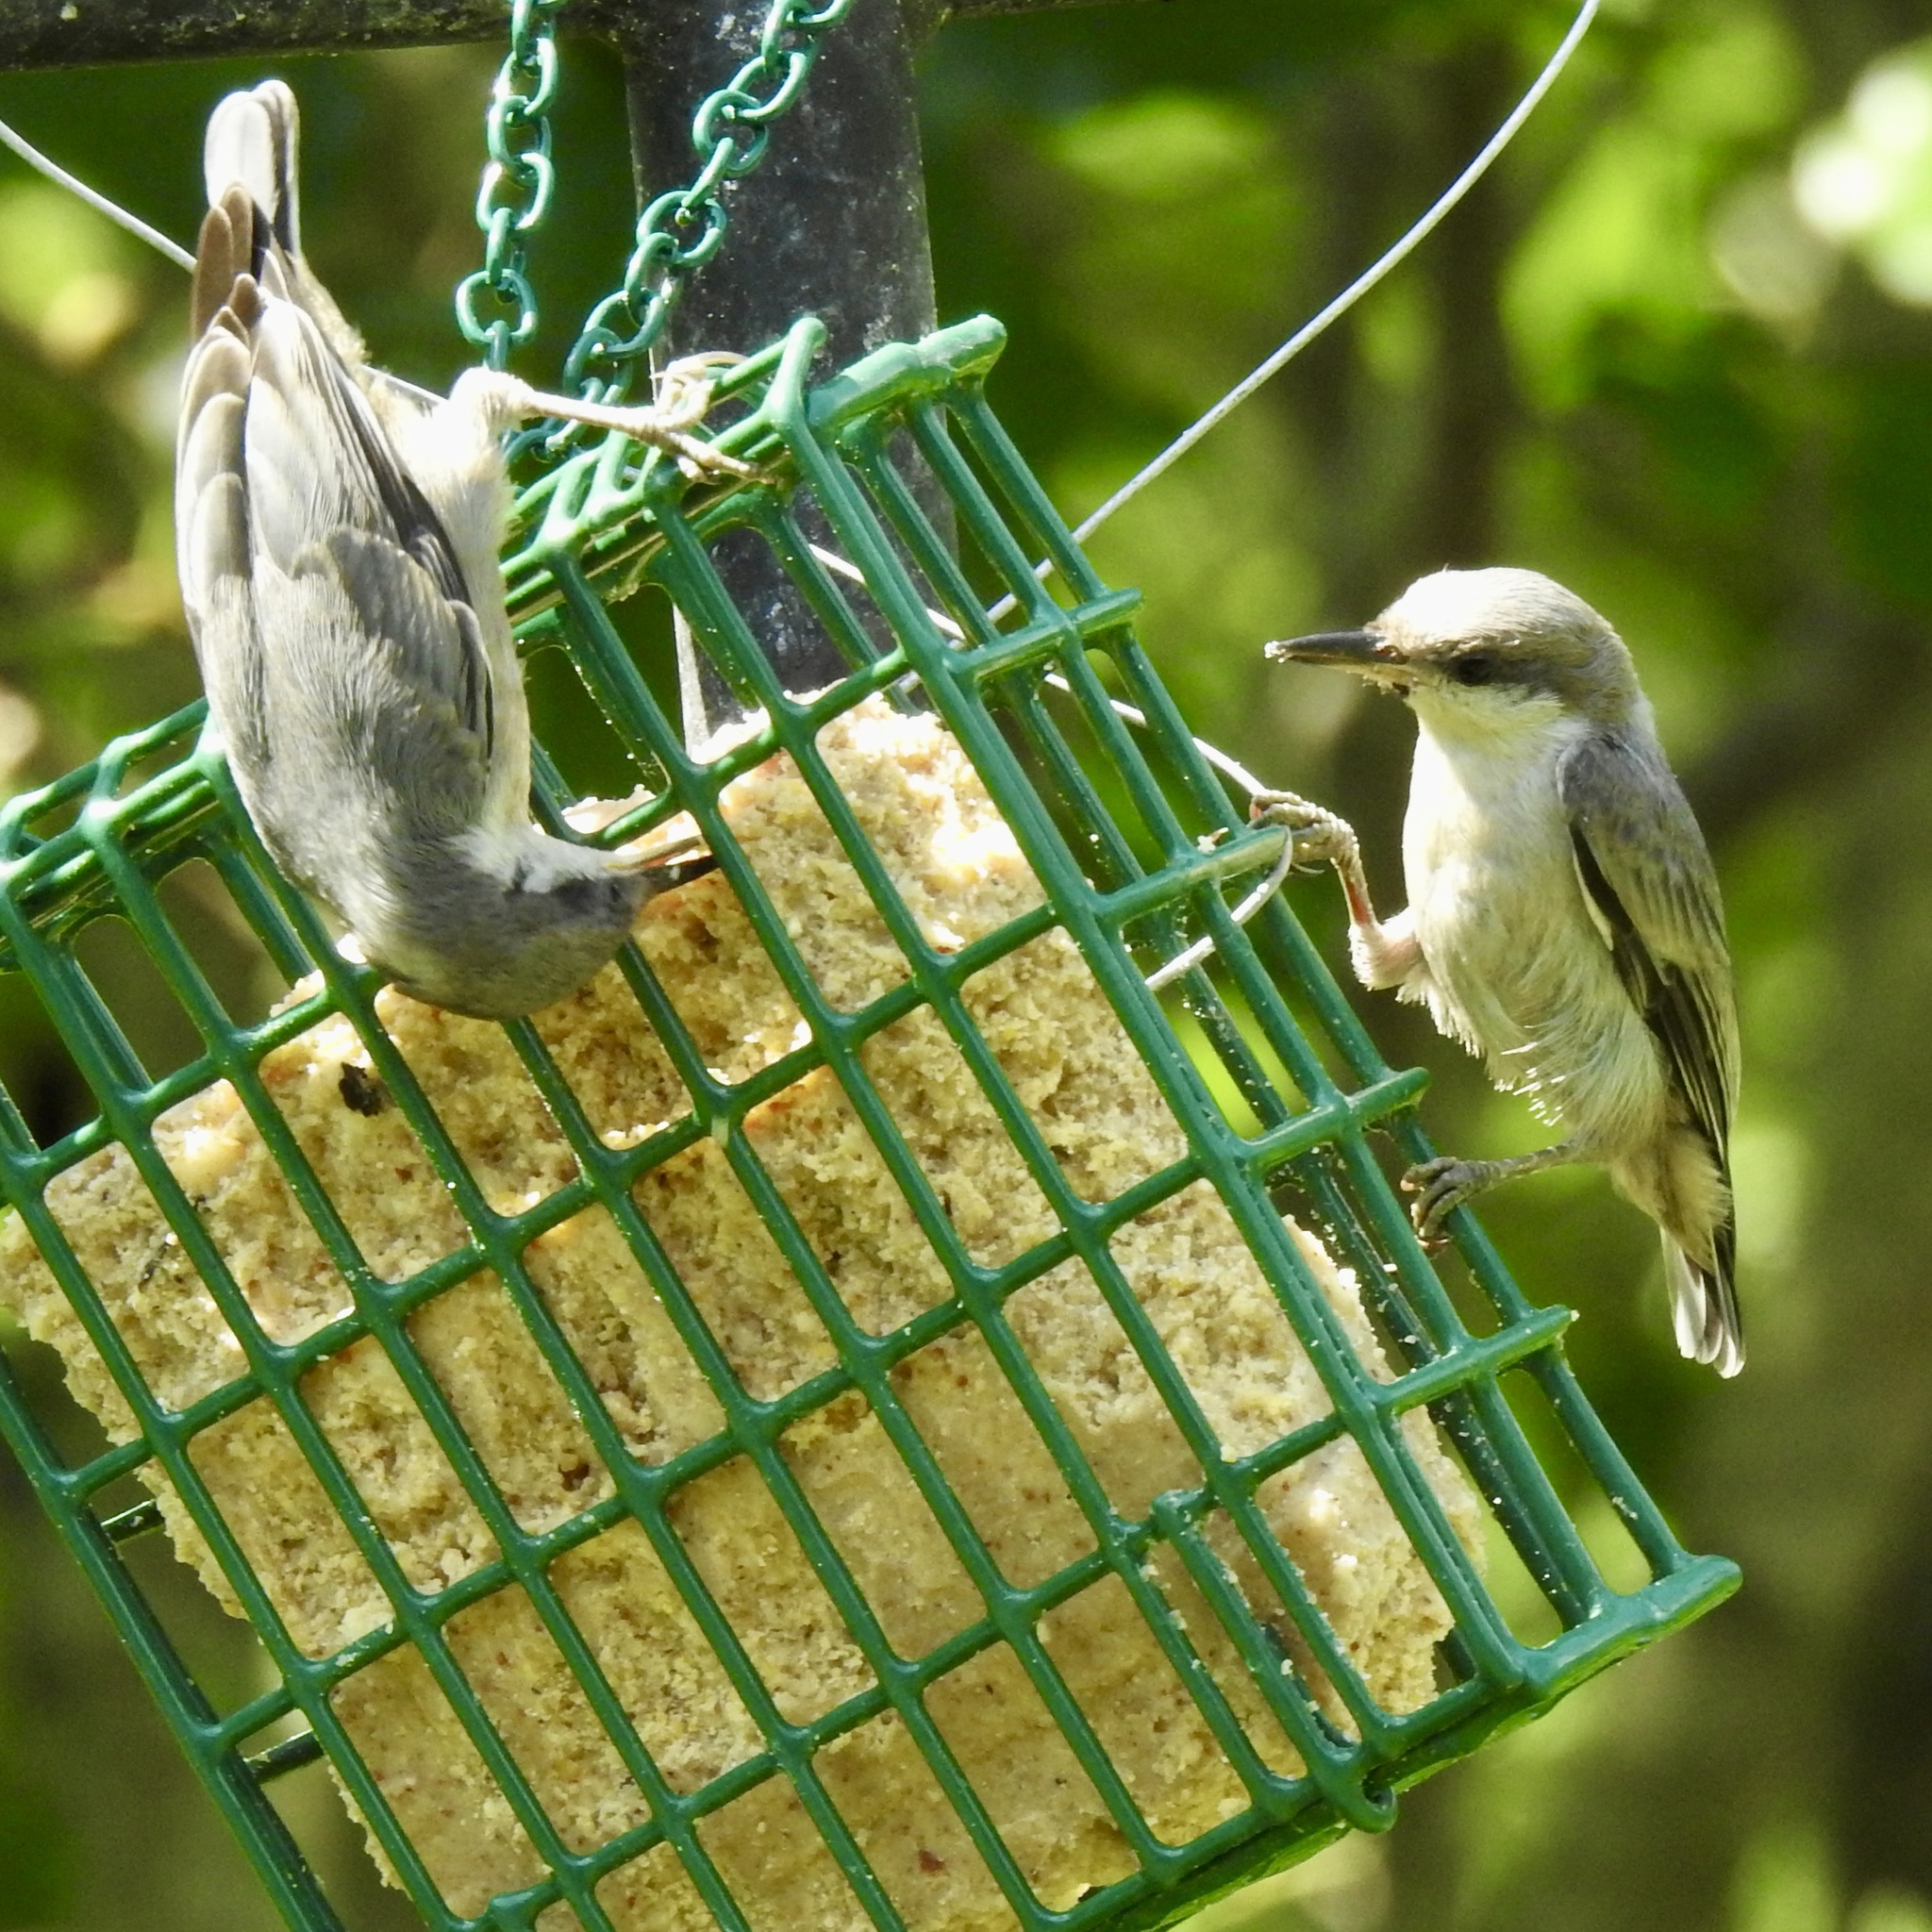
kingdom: Animalia
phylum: Chordata
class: Aves
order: Passeriformes
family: Sittidae
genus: Sitta
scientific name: Sitta pusilla
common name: Brown-headed nuthatch
